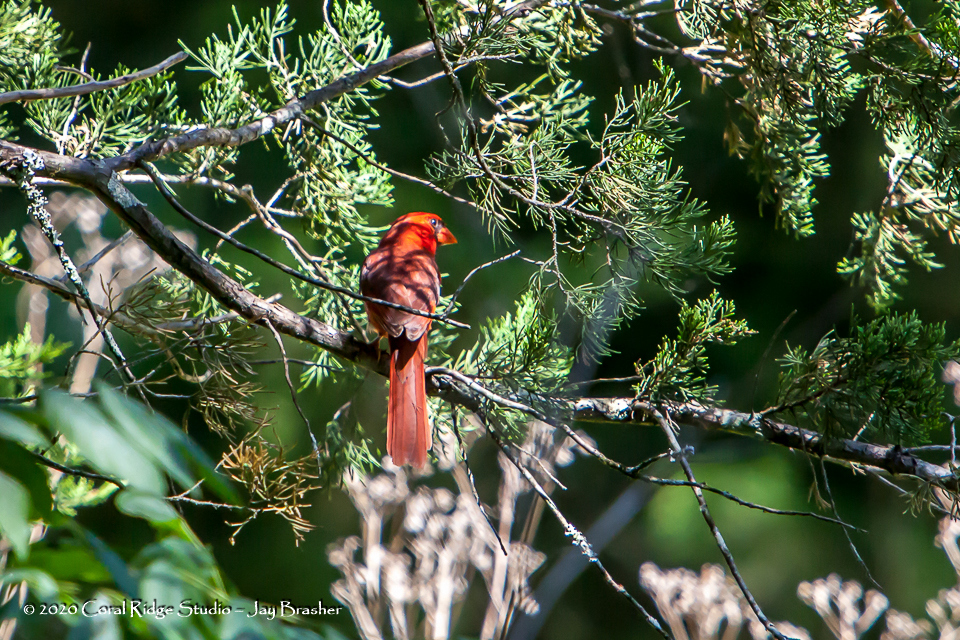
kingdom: Animalia
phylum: Chordata
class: Aves
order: Passeriformes
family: Cardinalidae
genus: Cardinalis
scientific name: Cardinalis cardinalis
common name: Northern cardinal
